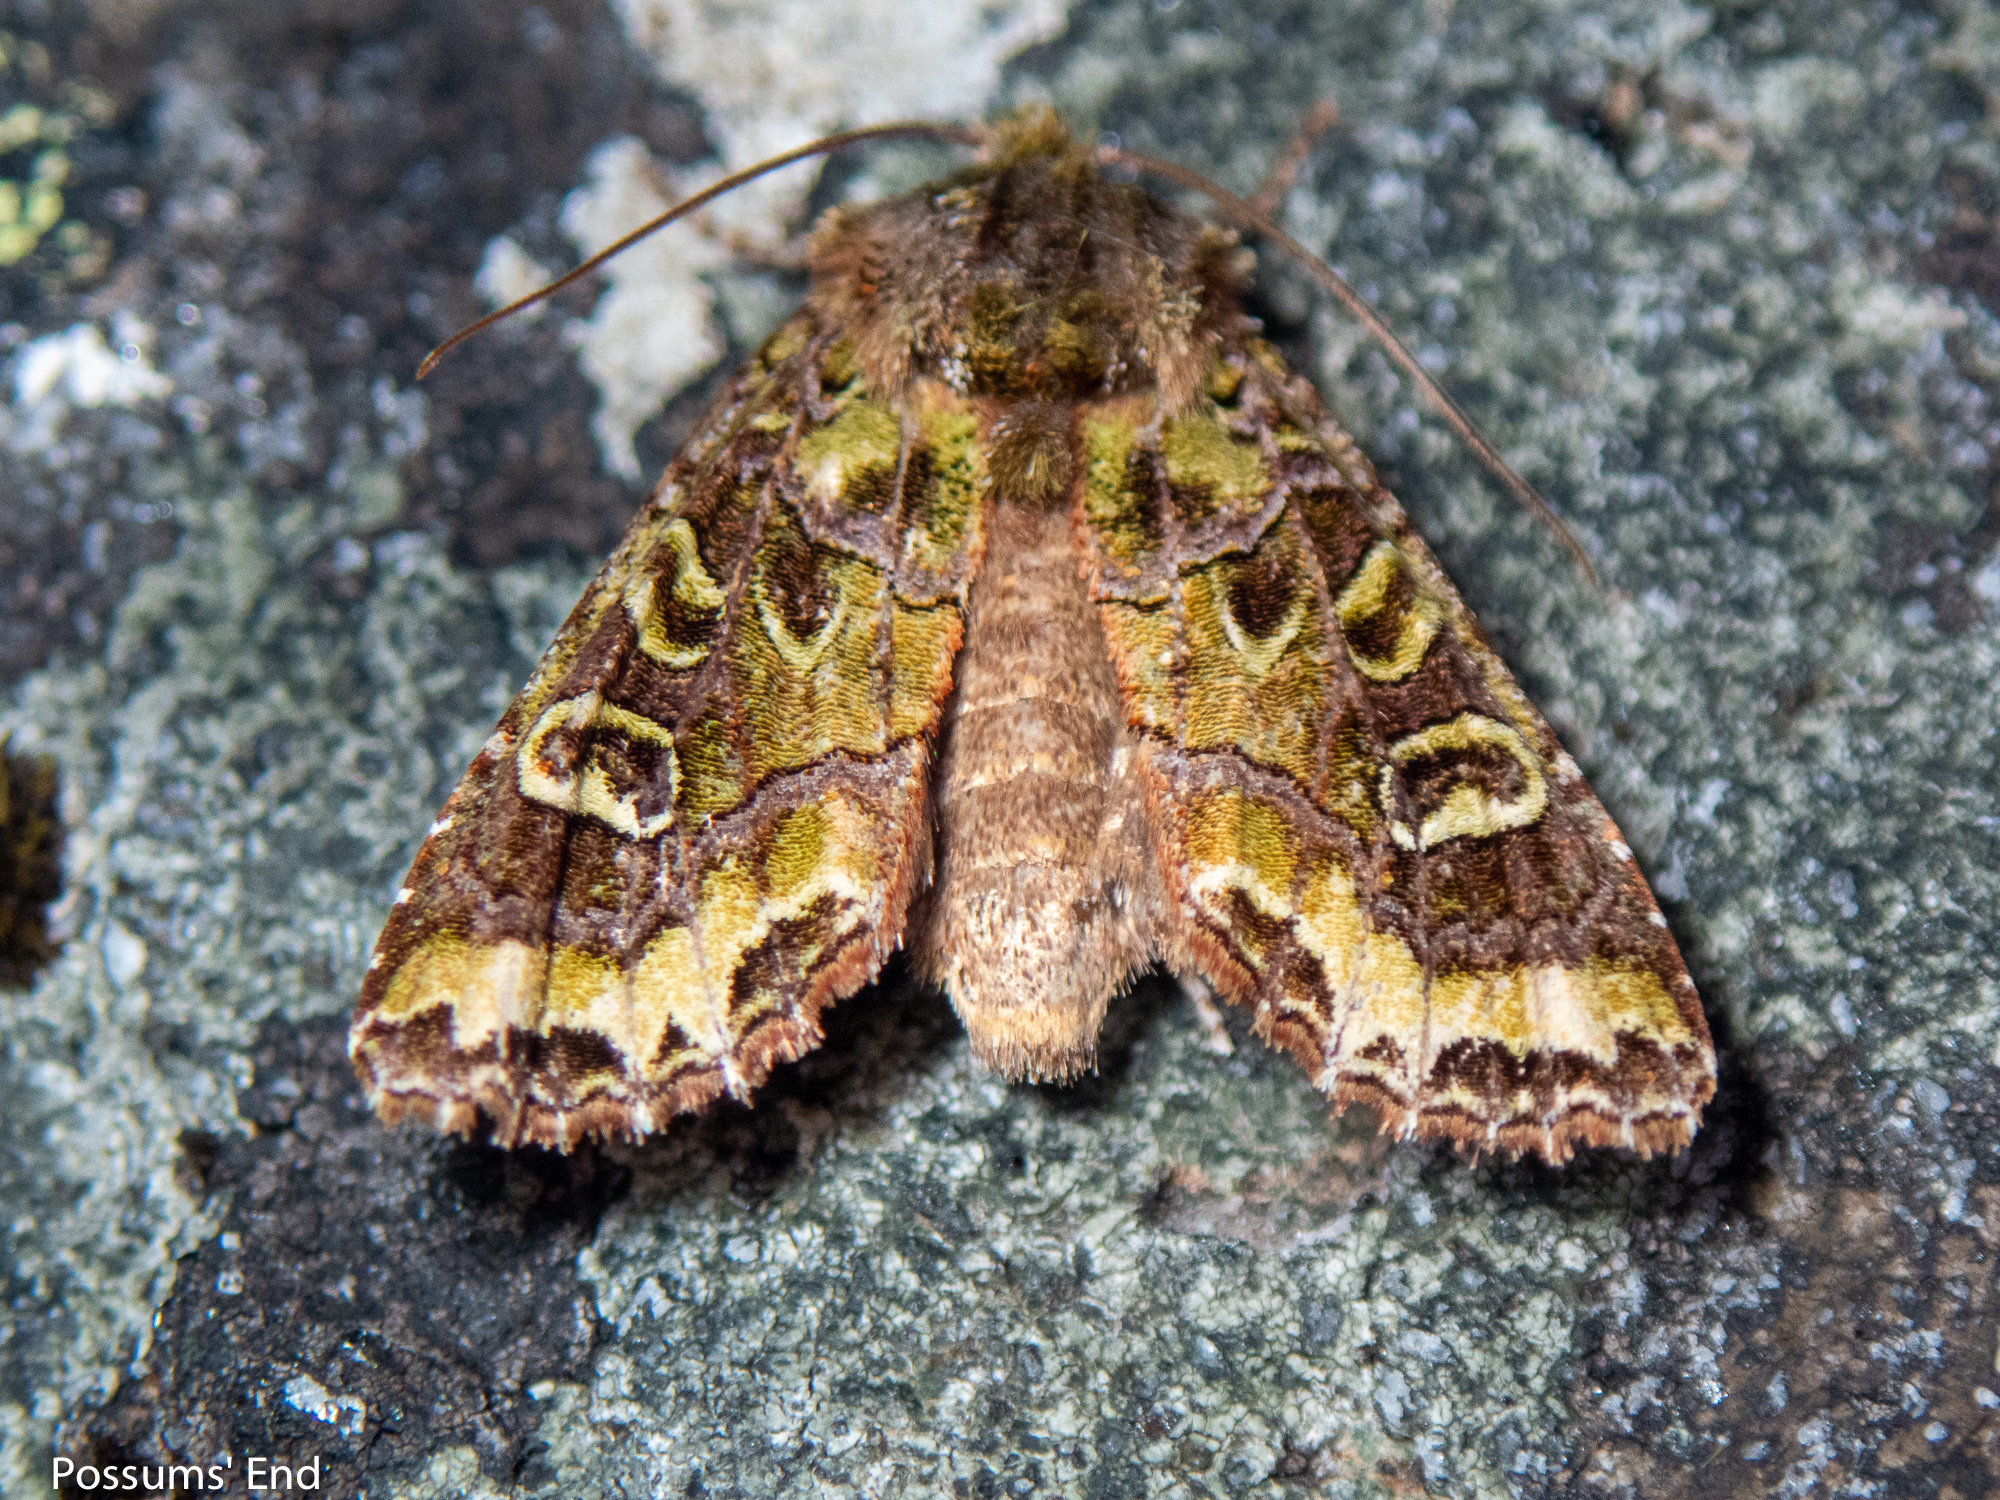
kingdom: Animalia
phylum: Arthropoda
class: Insecta
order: Lepidoptera
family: Noctuidae
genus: Ichneutica
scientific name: Ichneutica chlorodonta
